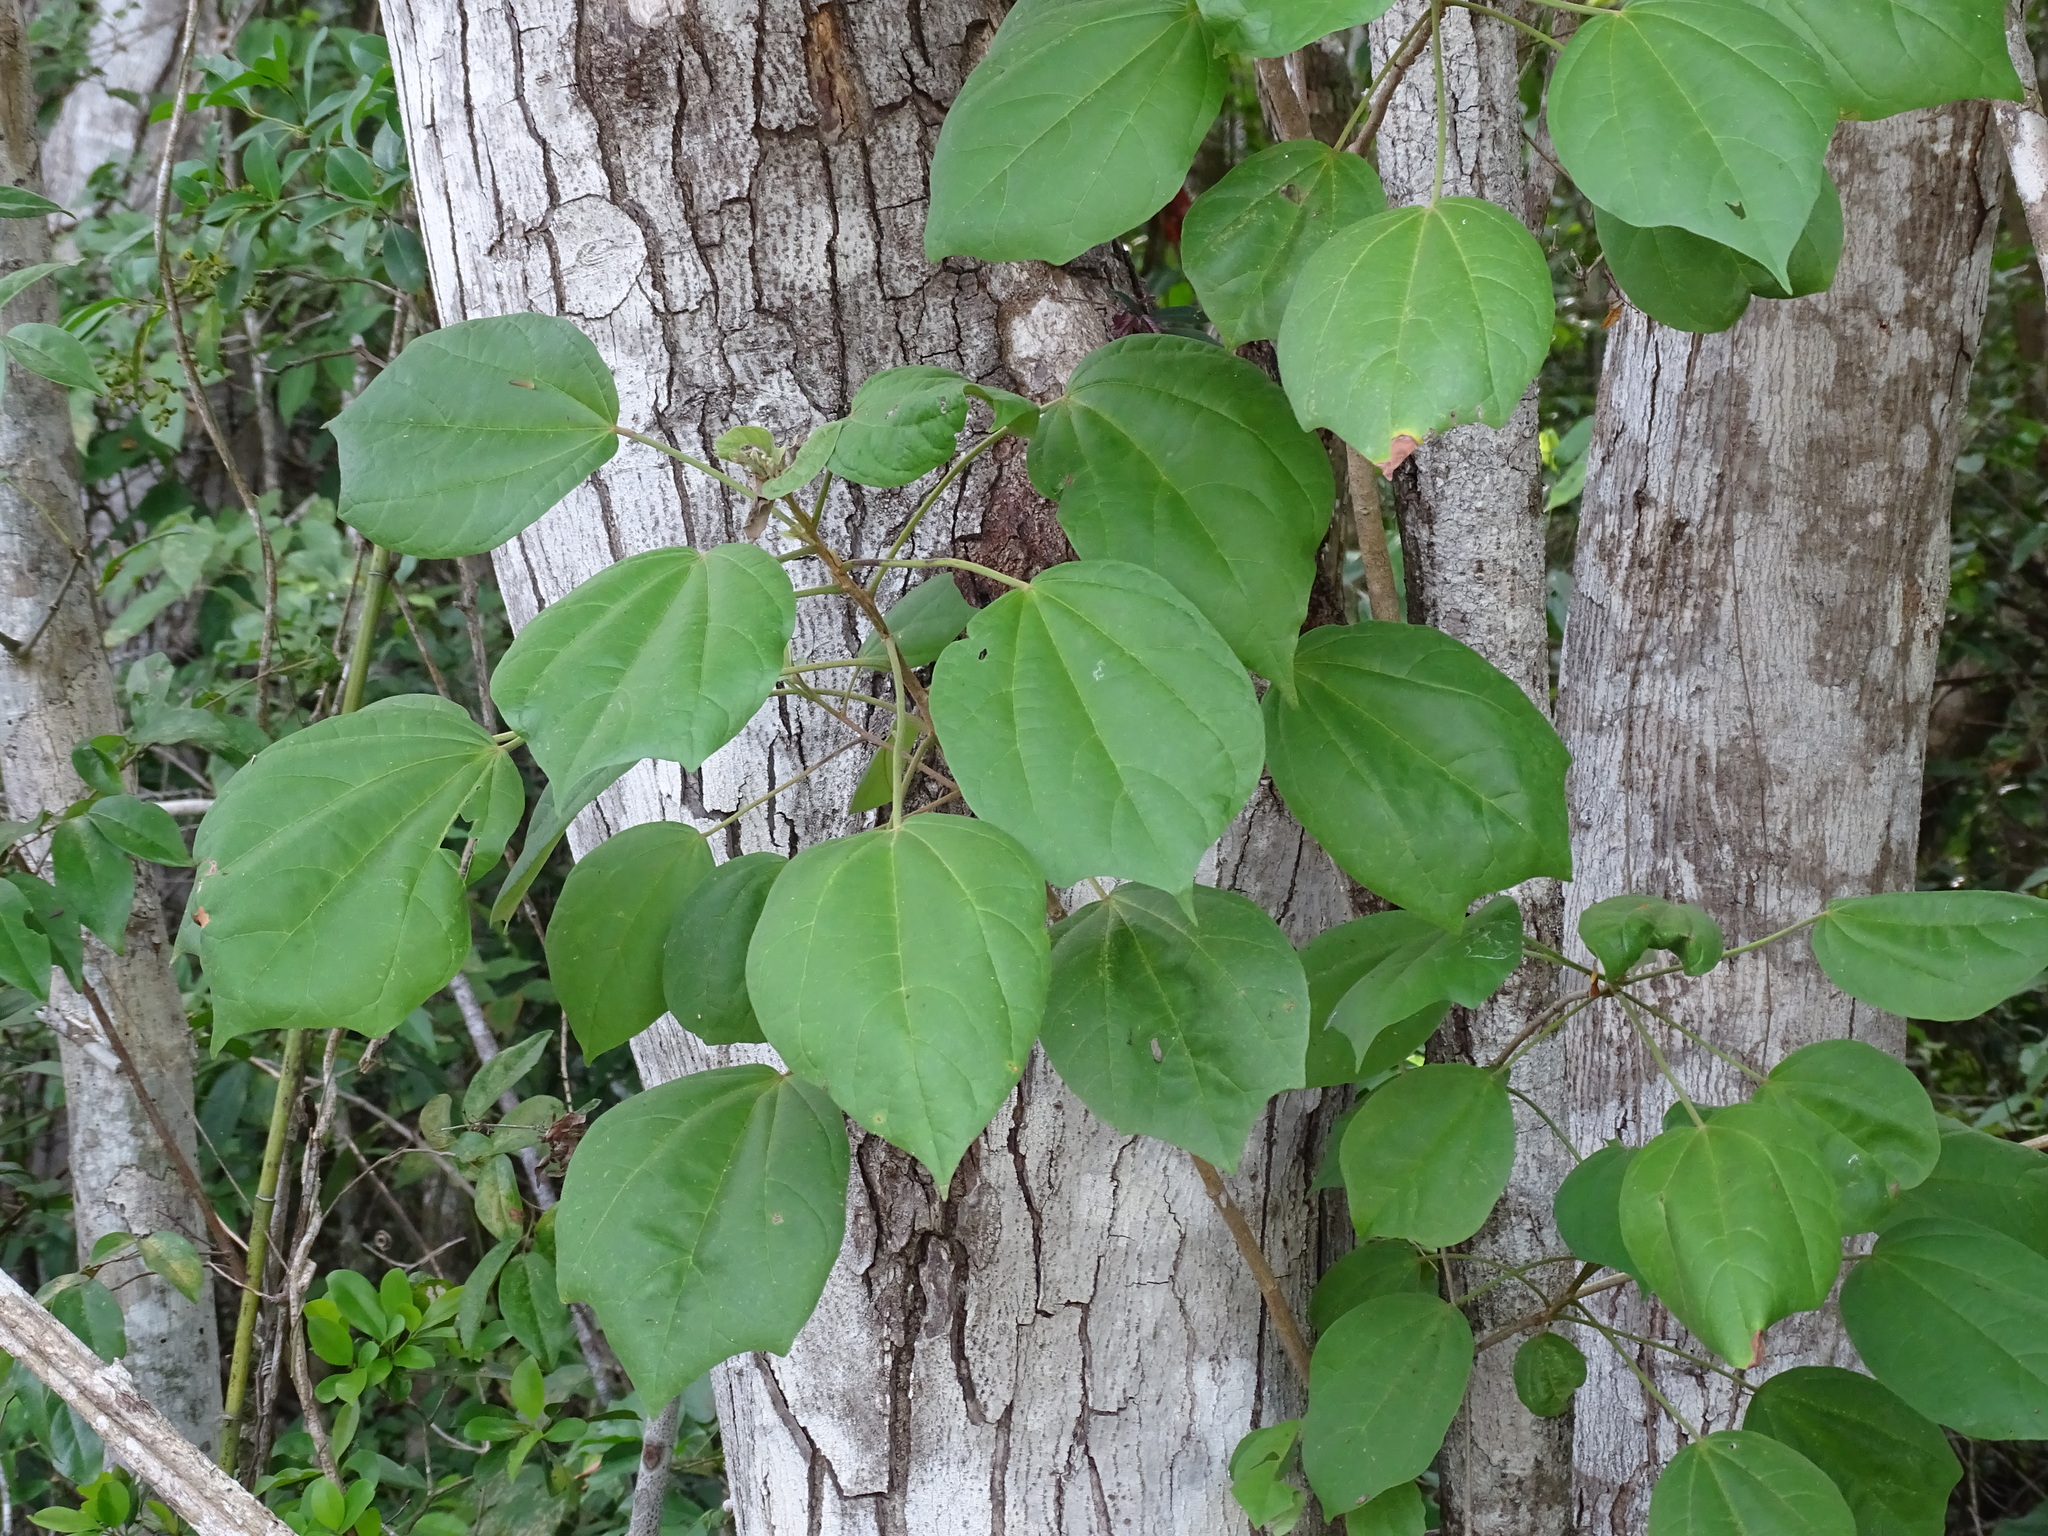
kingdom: Plantae
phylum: Tracheophyta
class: Magnoliopsida
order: Malvales
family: Malvaceae
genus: Hampea
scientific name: Hampea trilobata
